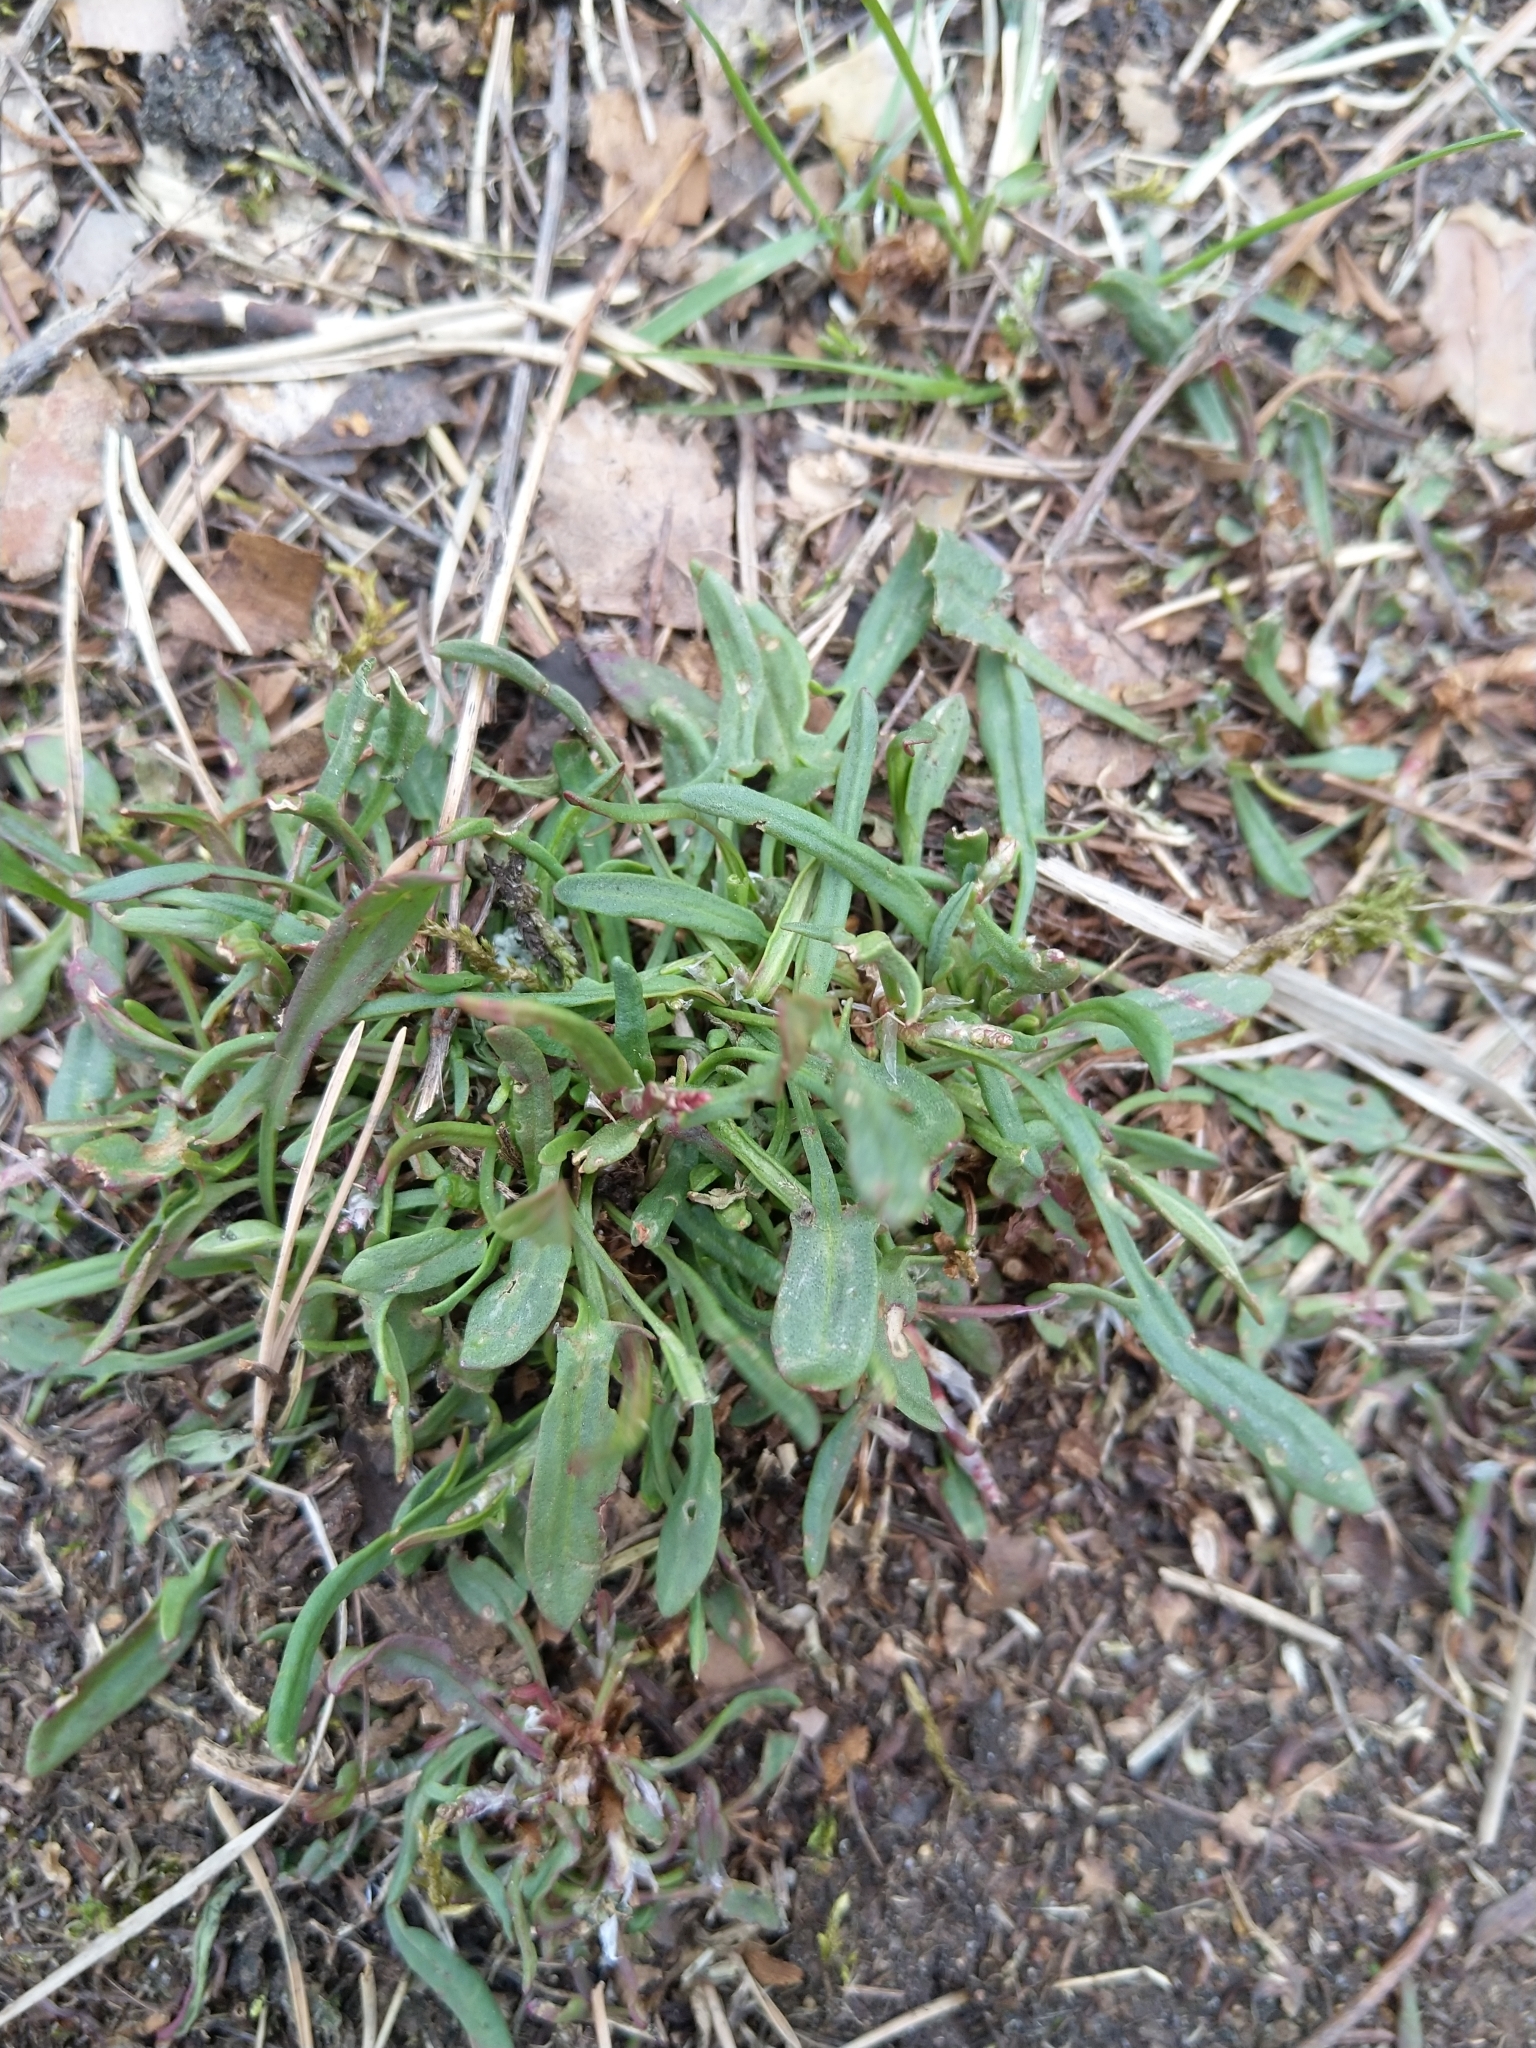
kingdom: Plantae
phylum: Tracheophyta
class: Magnoliopsida
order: Caryophyllales
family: Polygonaceae
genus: Rumex
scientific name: Rumex acetosella
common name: Common sheep sorrel
